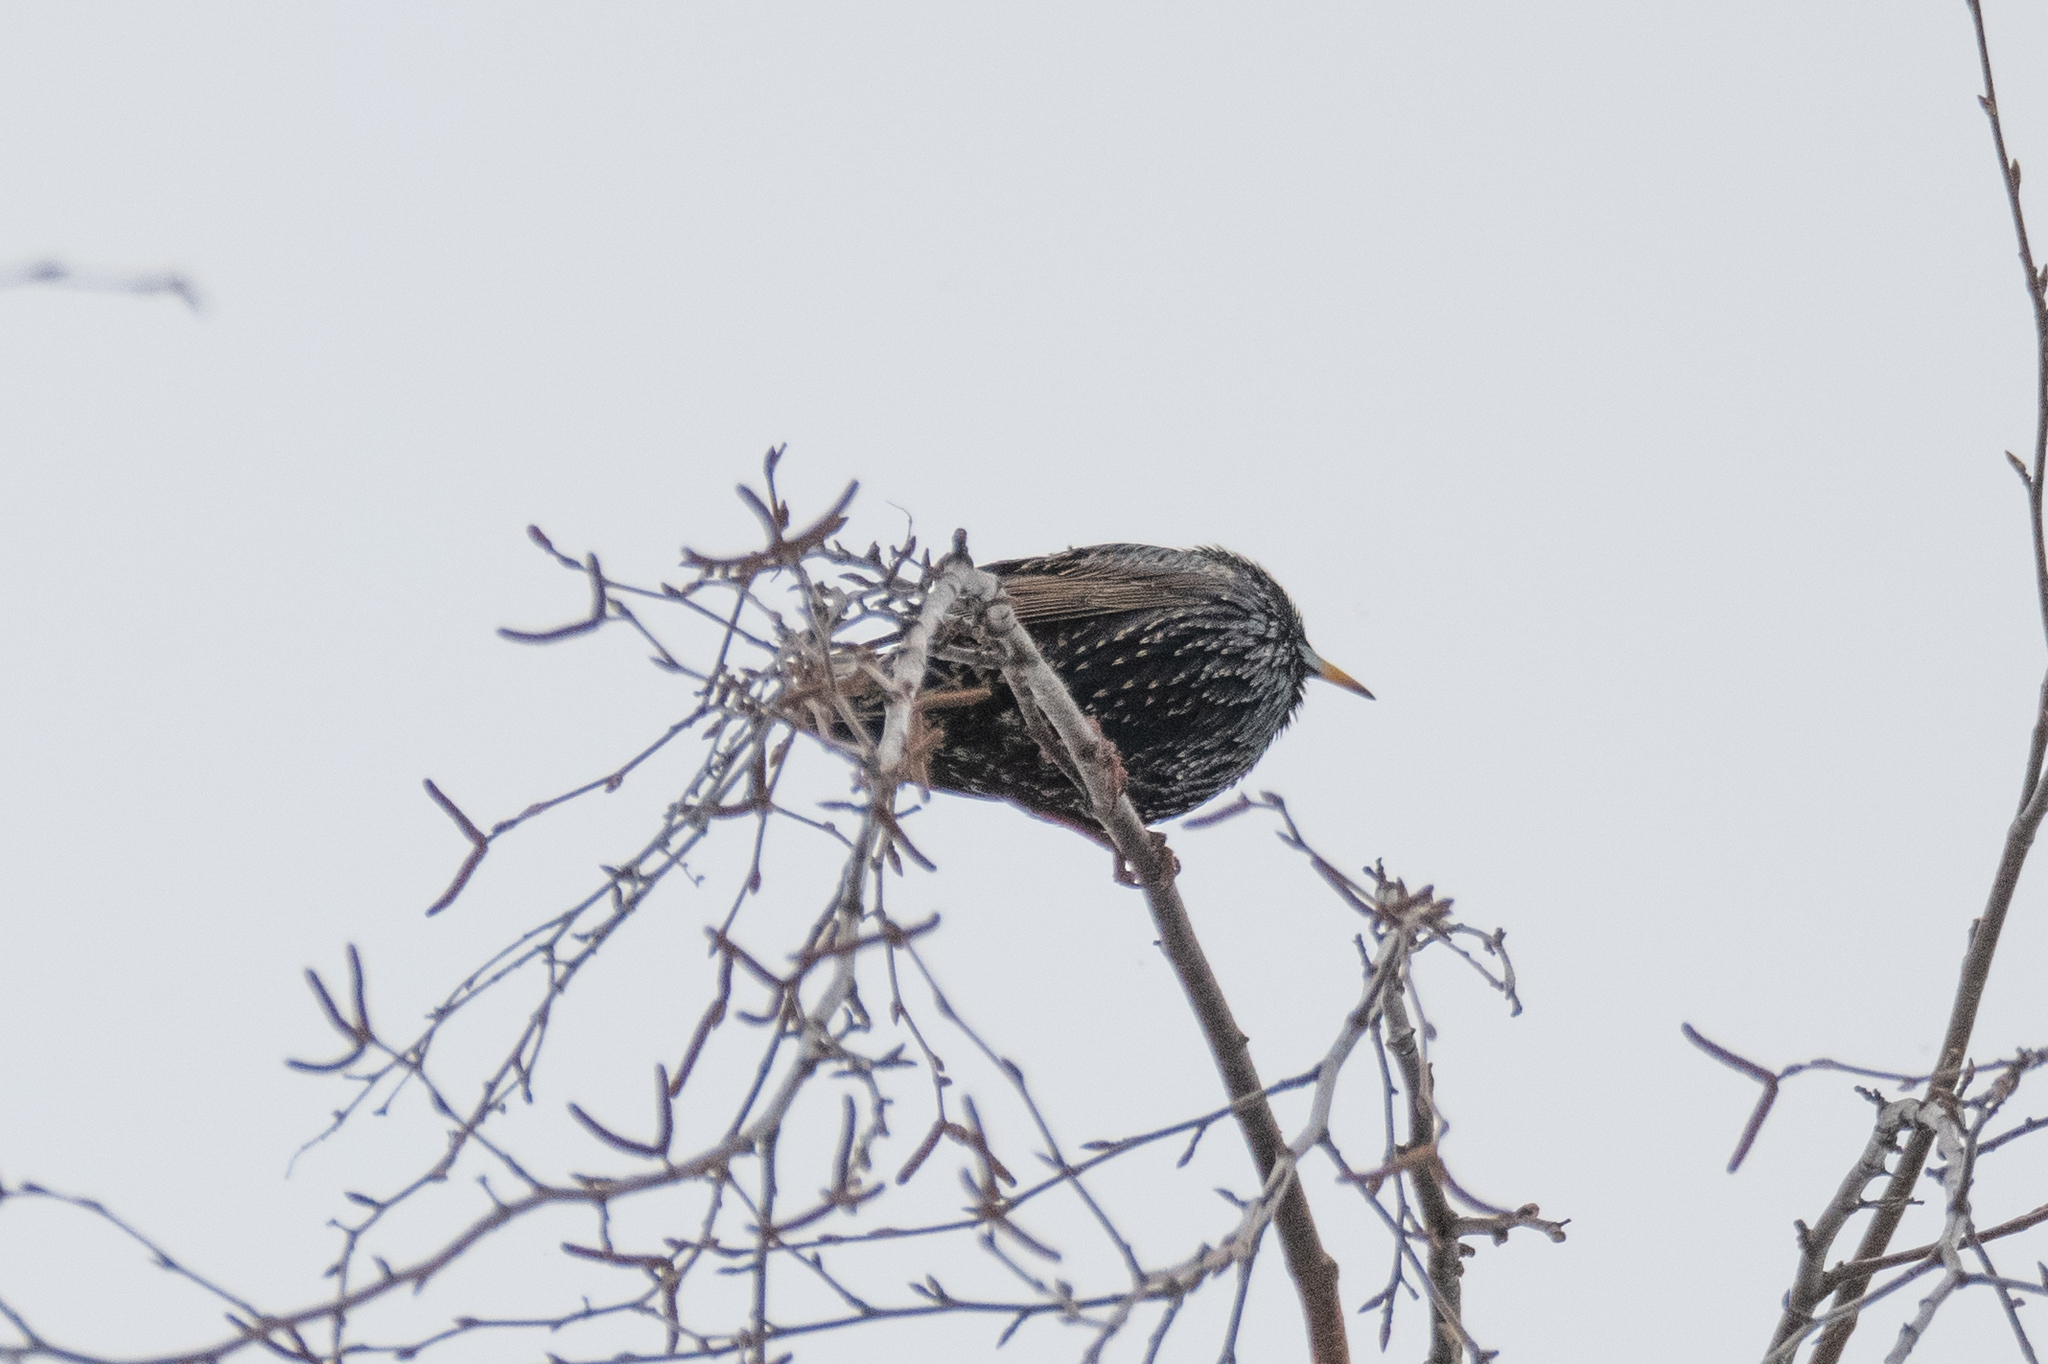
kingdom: Animalia
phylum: Chordata
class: Aves
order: Passeriformes
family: Sturnidae
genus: Sturnus
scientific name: Sturnus vulgaris
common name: Common starling
